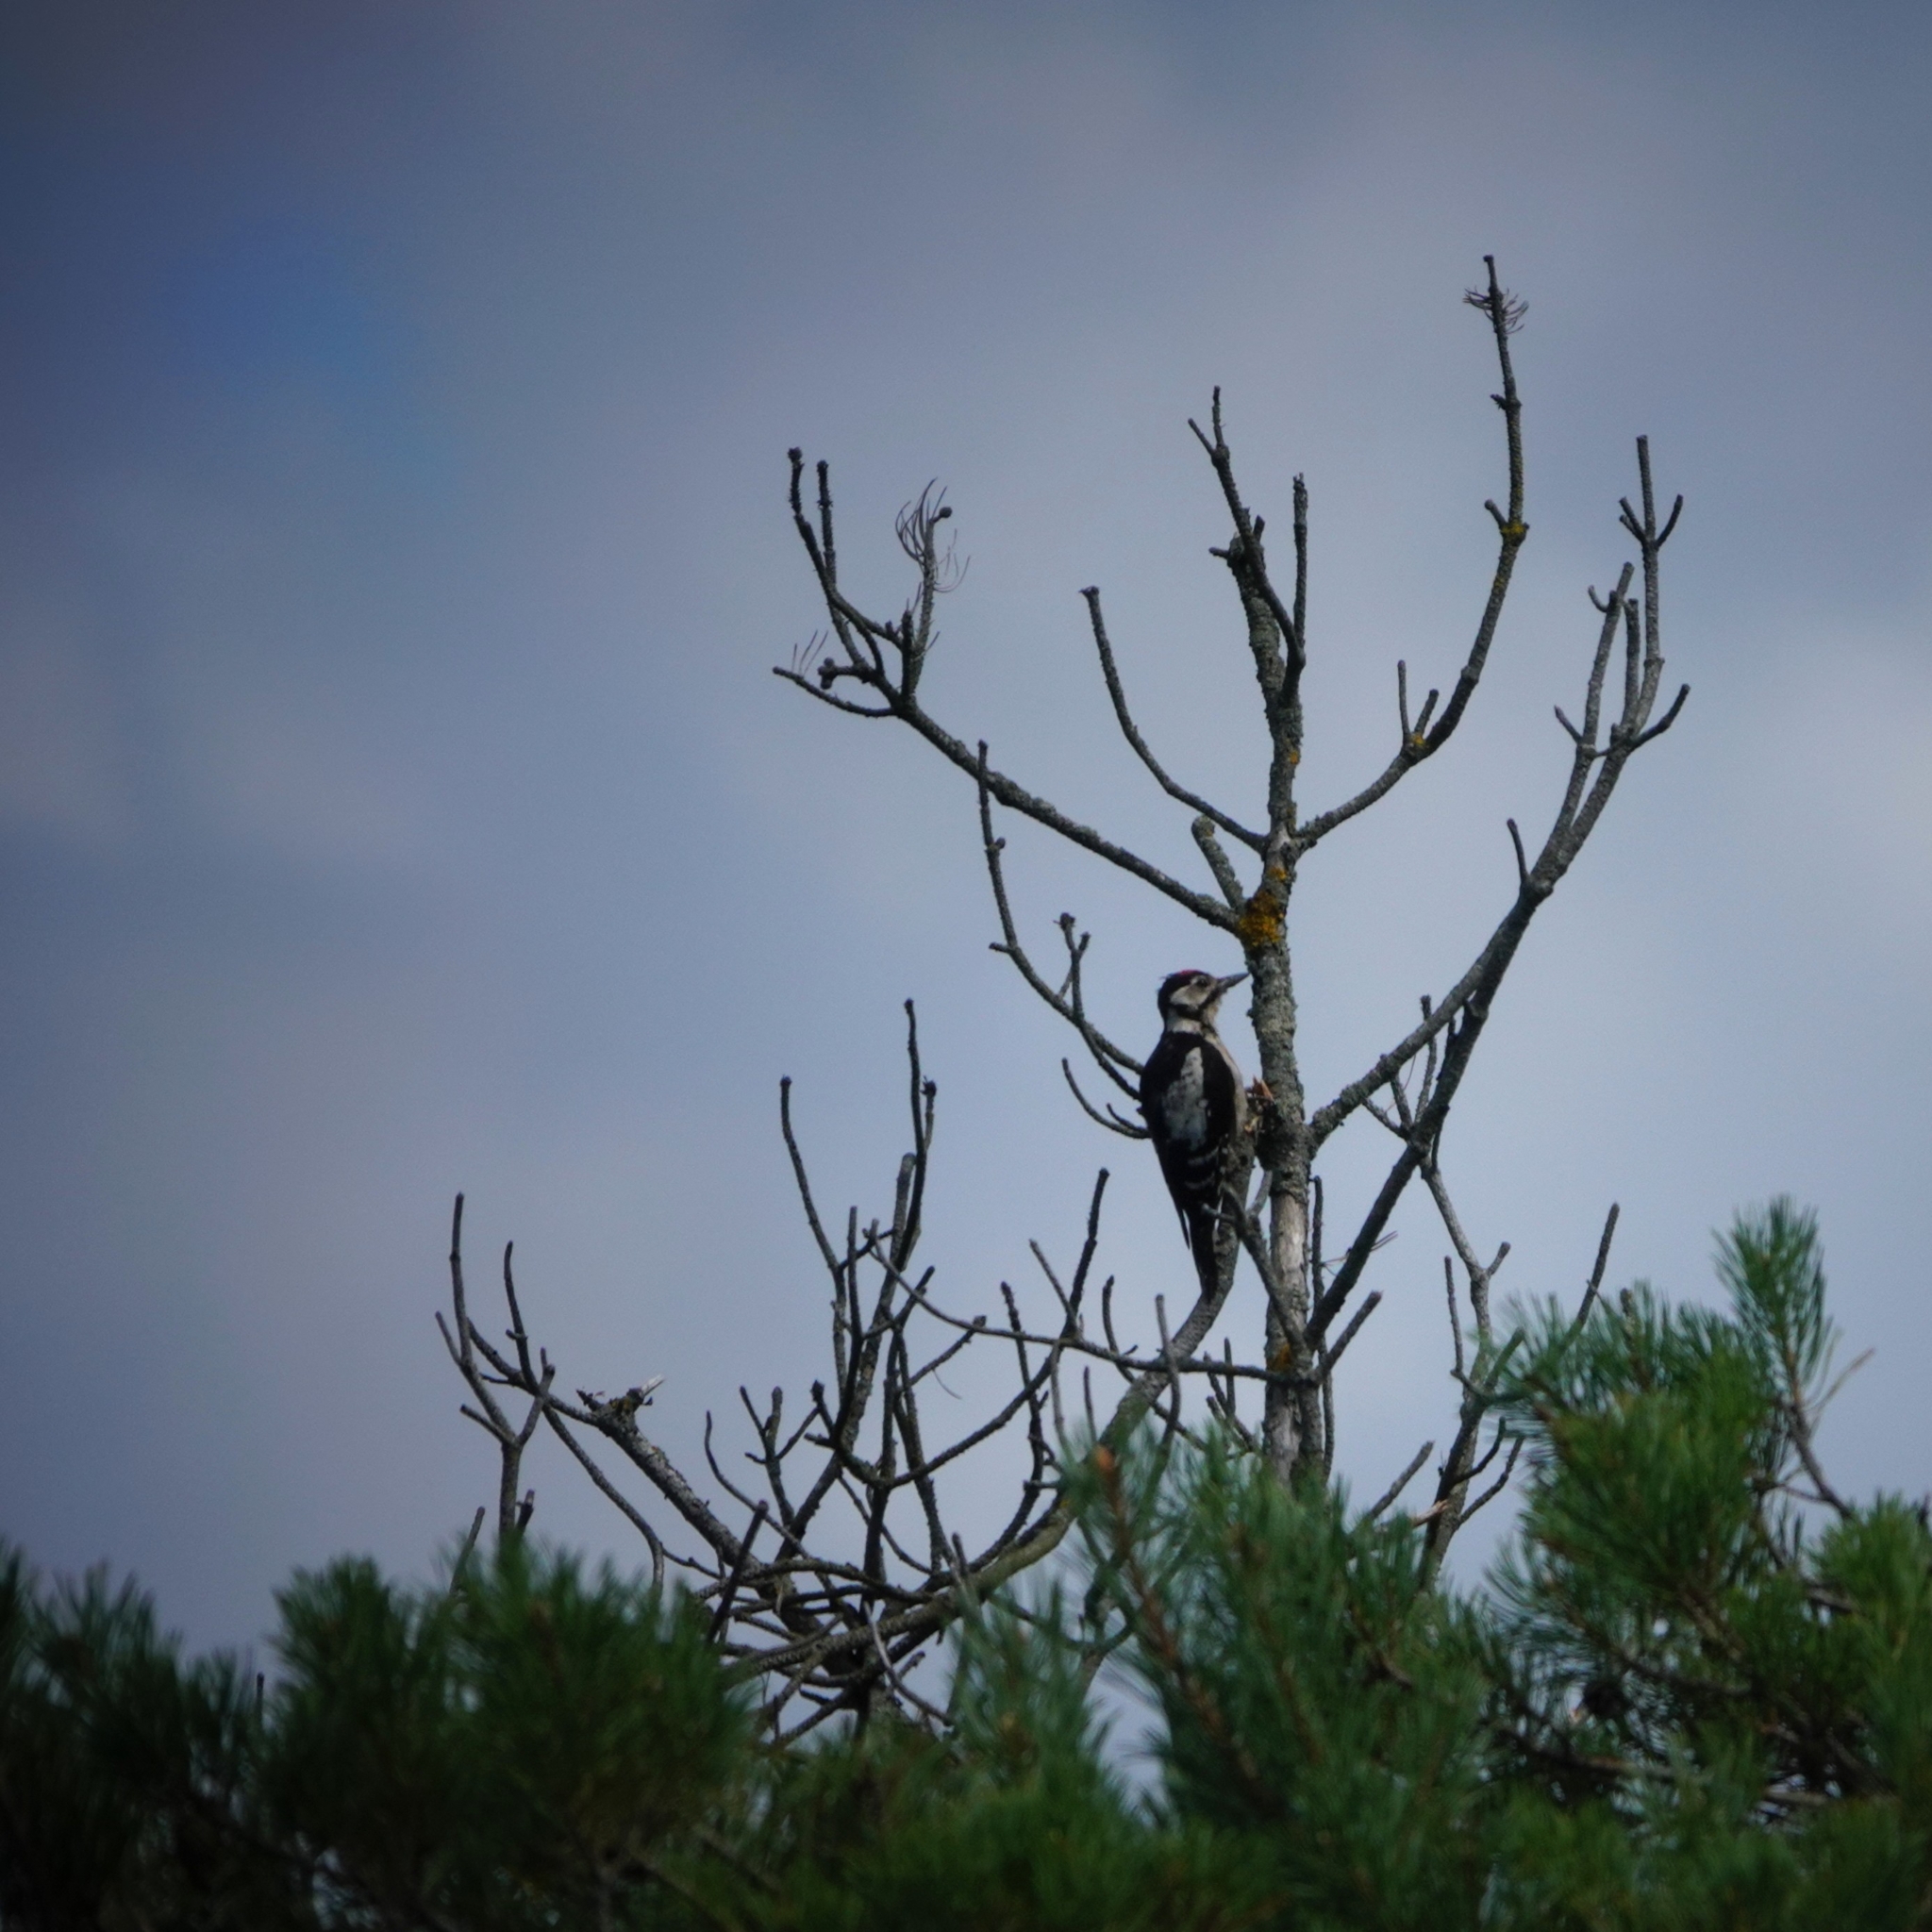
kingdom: Animalia
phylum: Chordata
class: Aves
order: Piciformes
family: Picidae
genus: Dendrocopos
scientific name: Dendrocopos major
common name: Great spotted woodpecker
